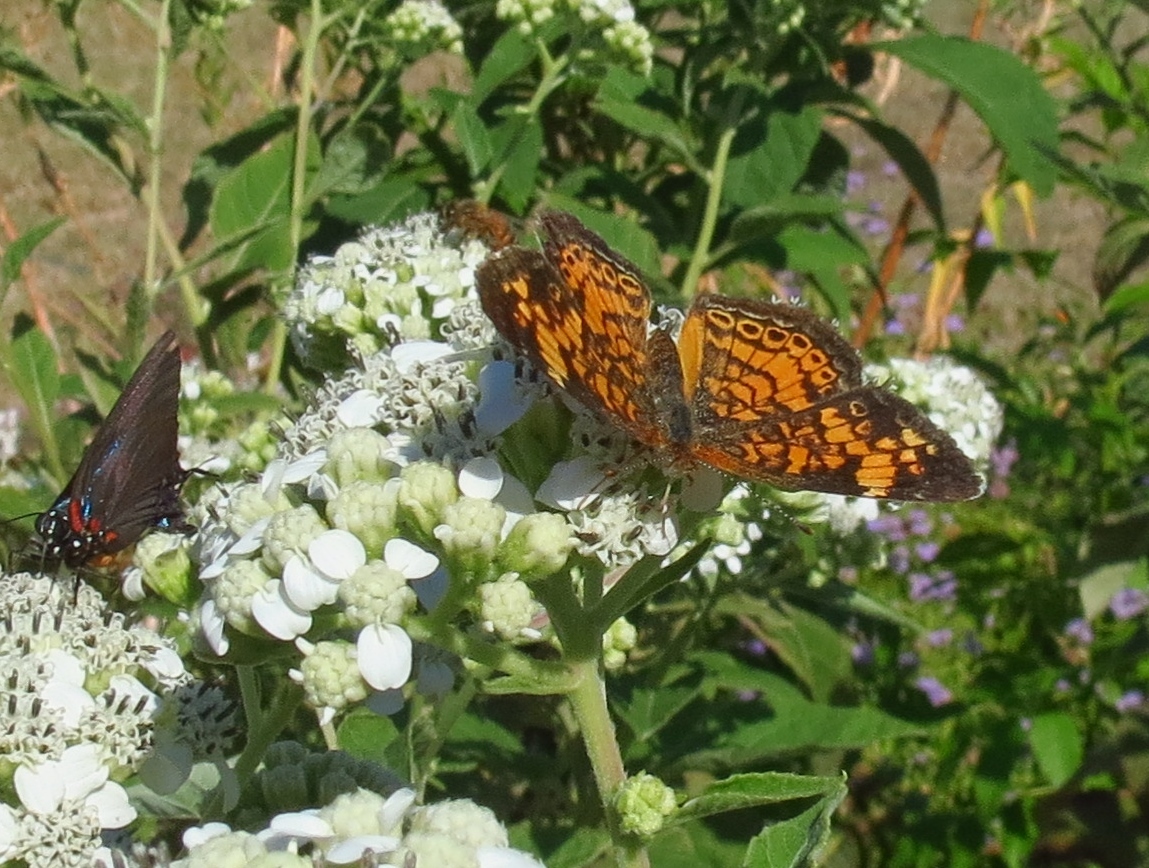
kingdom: Animalia
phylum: Arthropoda
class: Insecta
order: Lepidoptera
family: Nymphalidae
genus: Phyciodes
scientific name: Phyciodes tharos
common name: Pearl crescent
